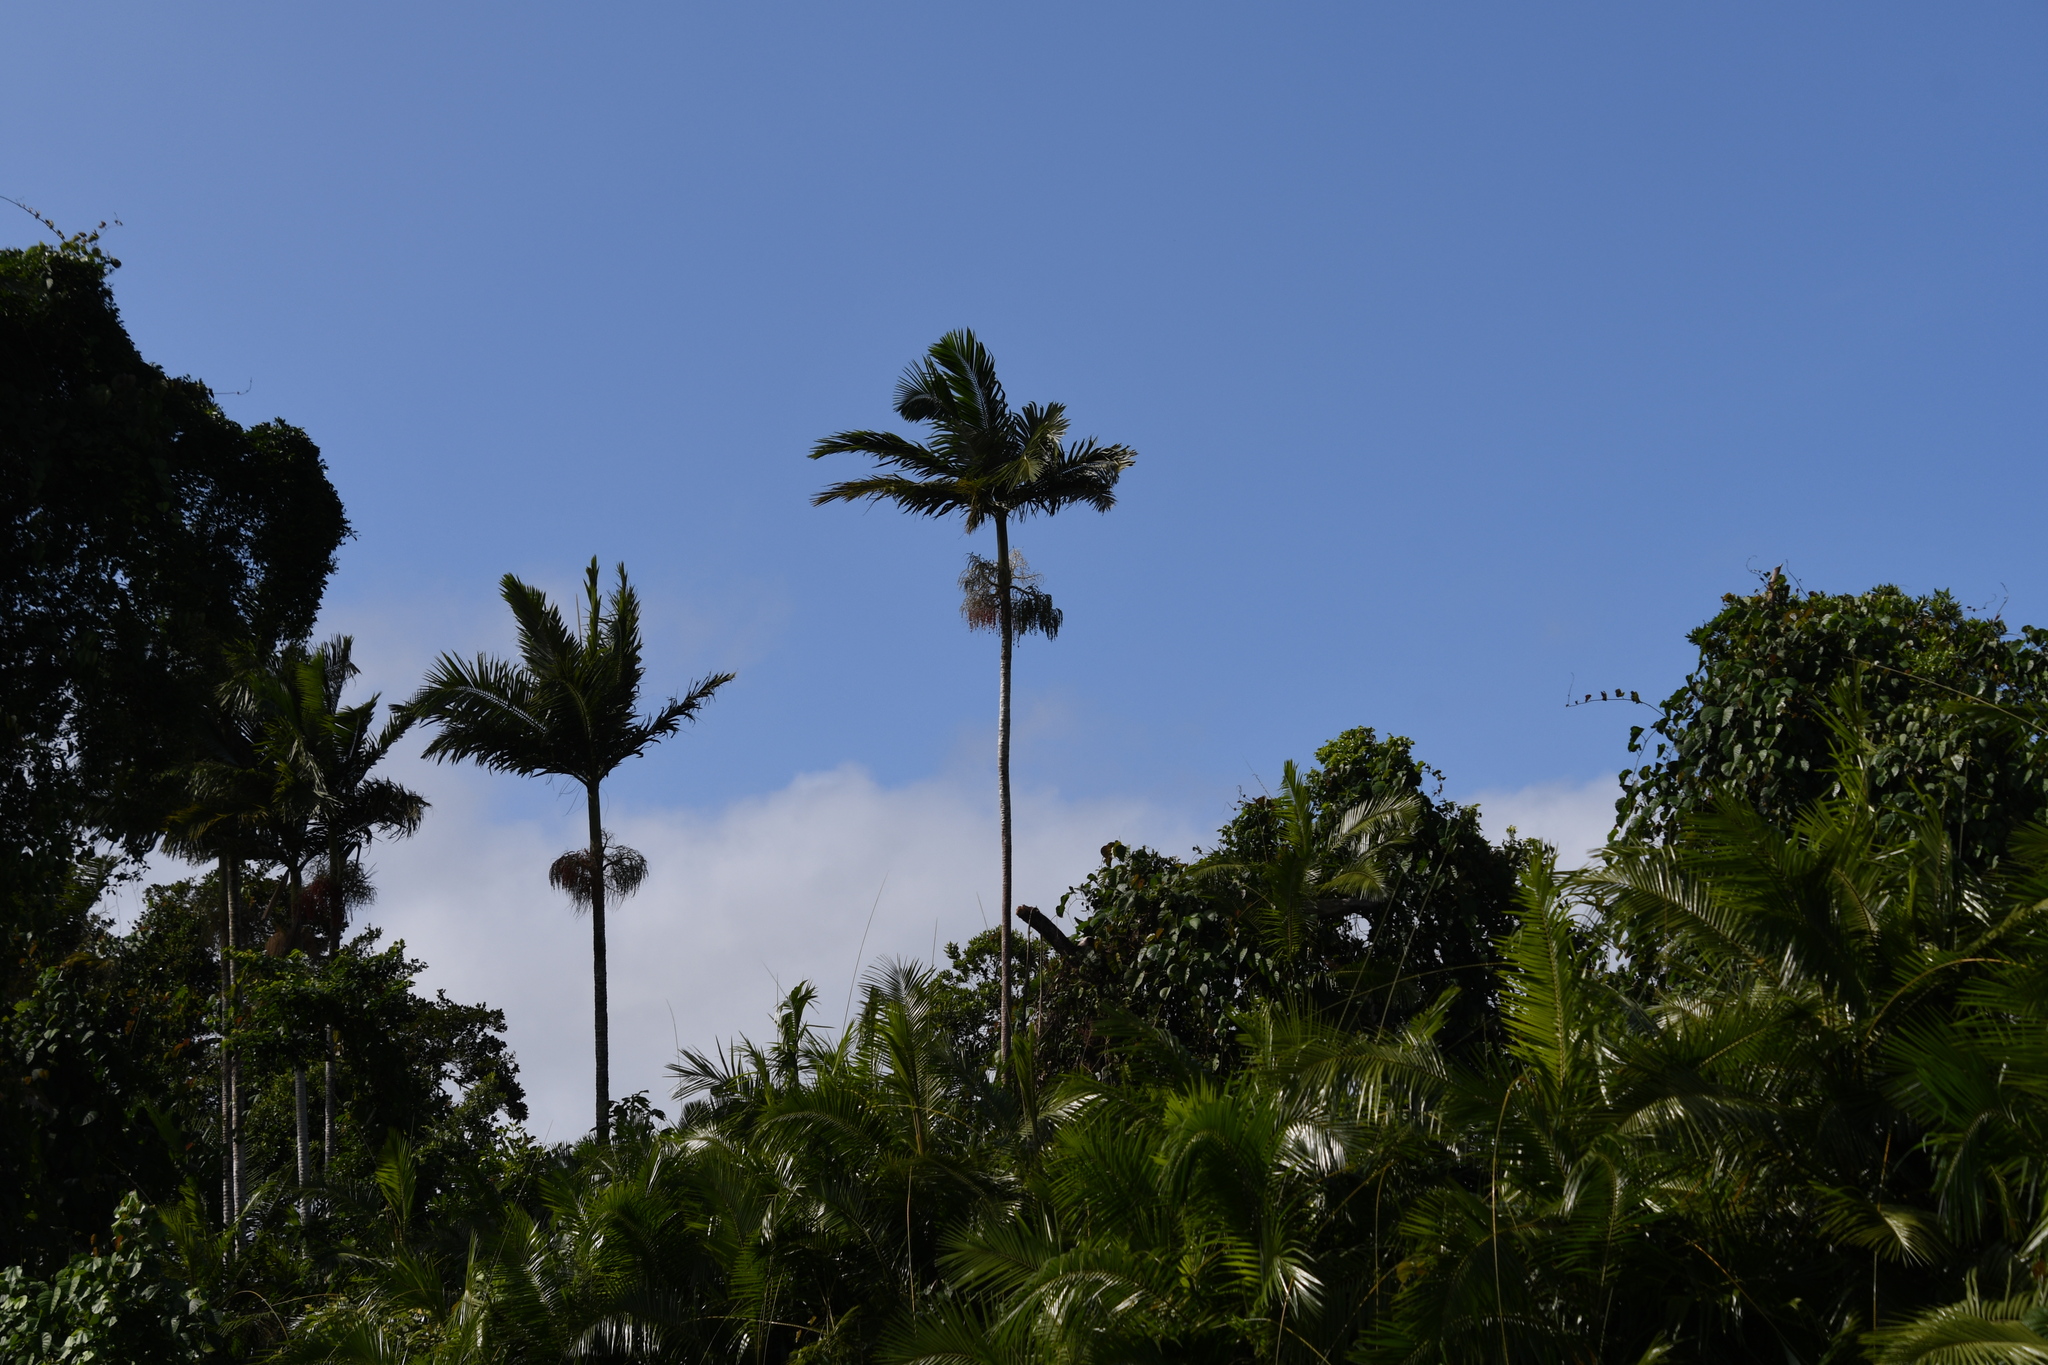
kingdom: Plantae
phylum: Tracheophyta
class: Liliopsida
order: Arecales
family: Arecaceae
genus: Archontophoenix
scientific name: Archontophoenix alexandrae
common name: Alexandra palm
